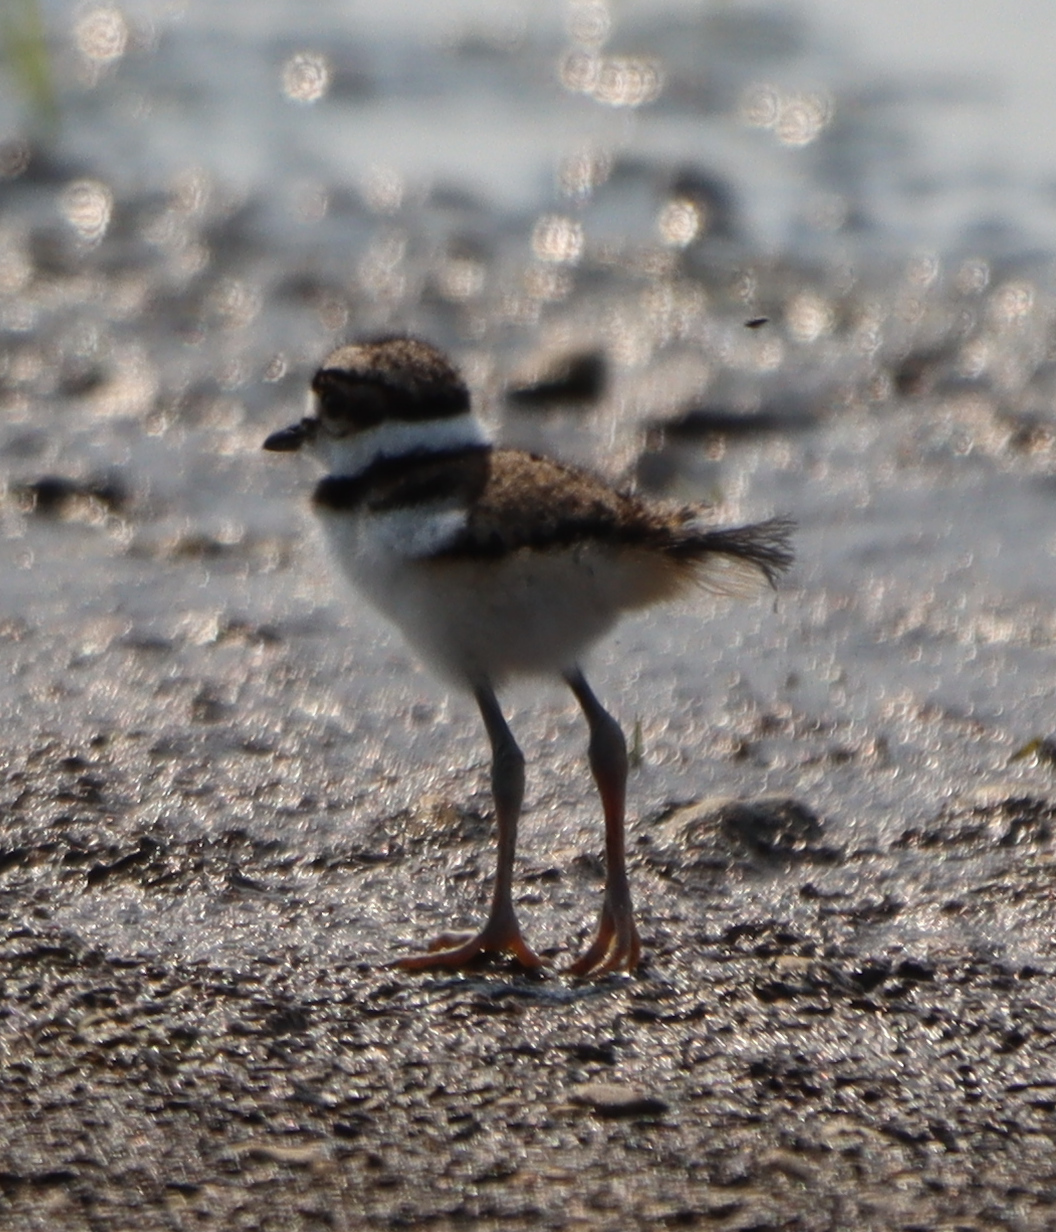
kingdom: Animalia
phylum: Chordata
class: Aves
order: Charadriiformes
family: Charadriidae
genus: Charadrius
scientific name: Charadrius vociferus
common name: Killdeer
